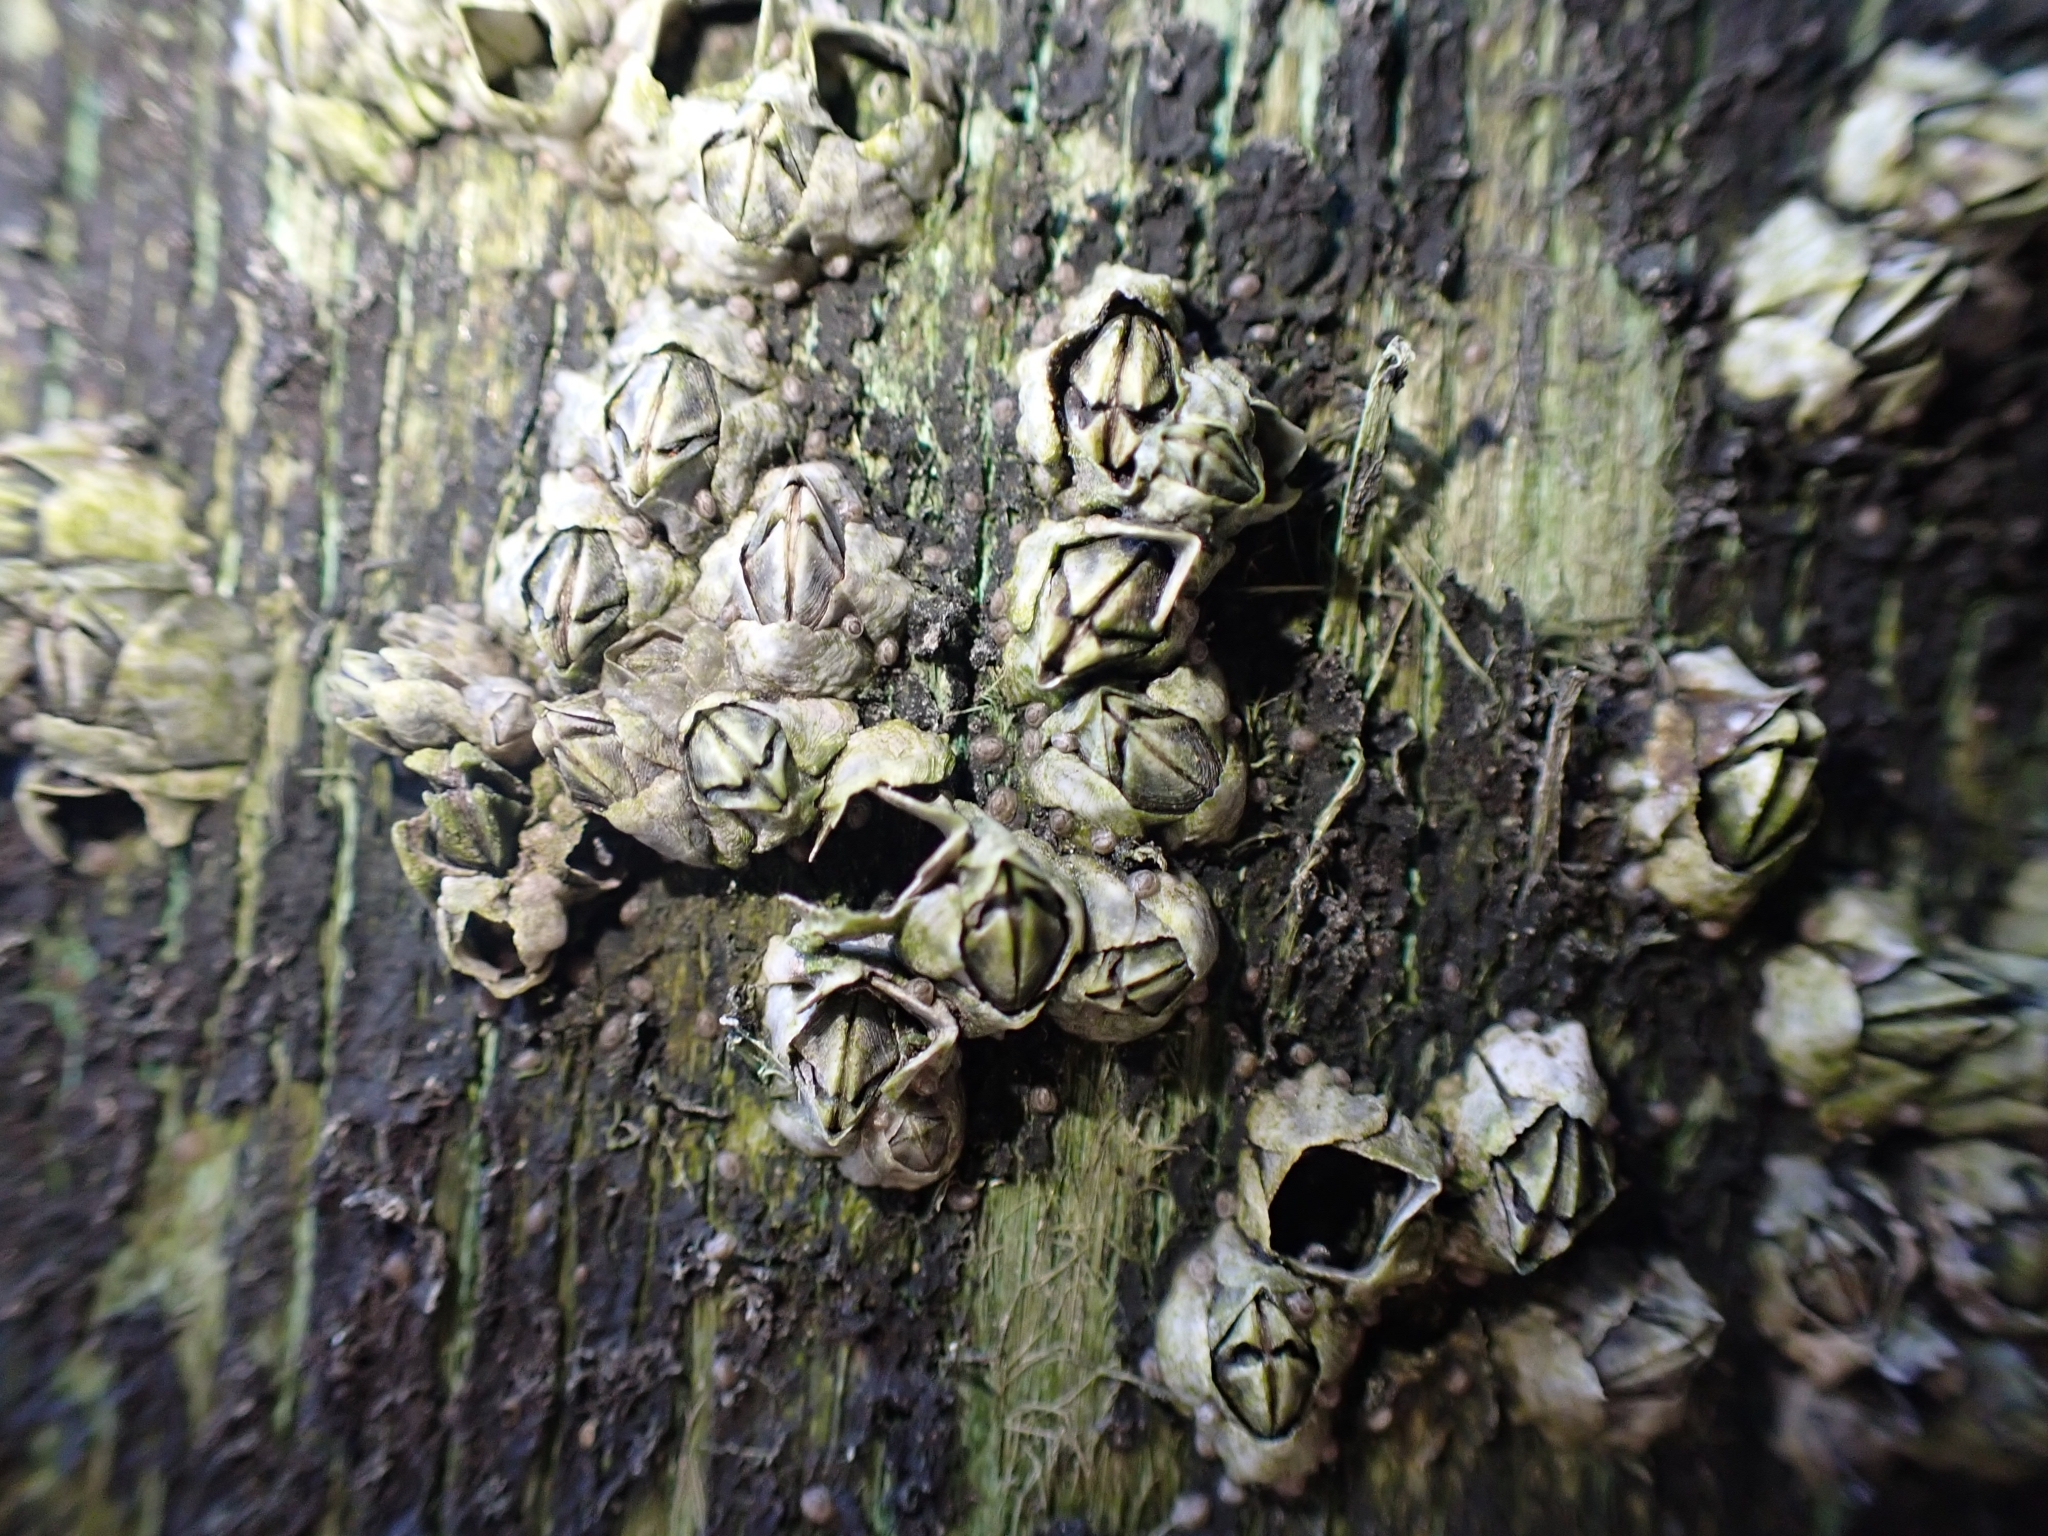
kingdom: Animalia
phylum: Arthropoda
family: Elminiidae
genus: Austrominius
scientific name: Austrominius modestus
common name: Australasian barnacle
